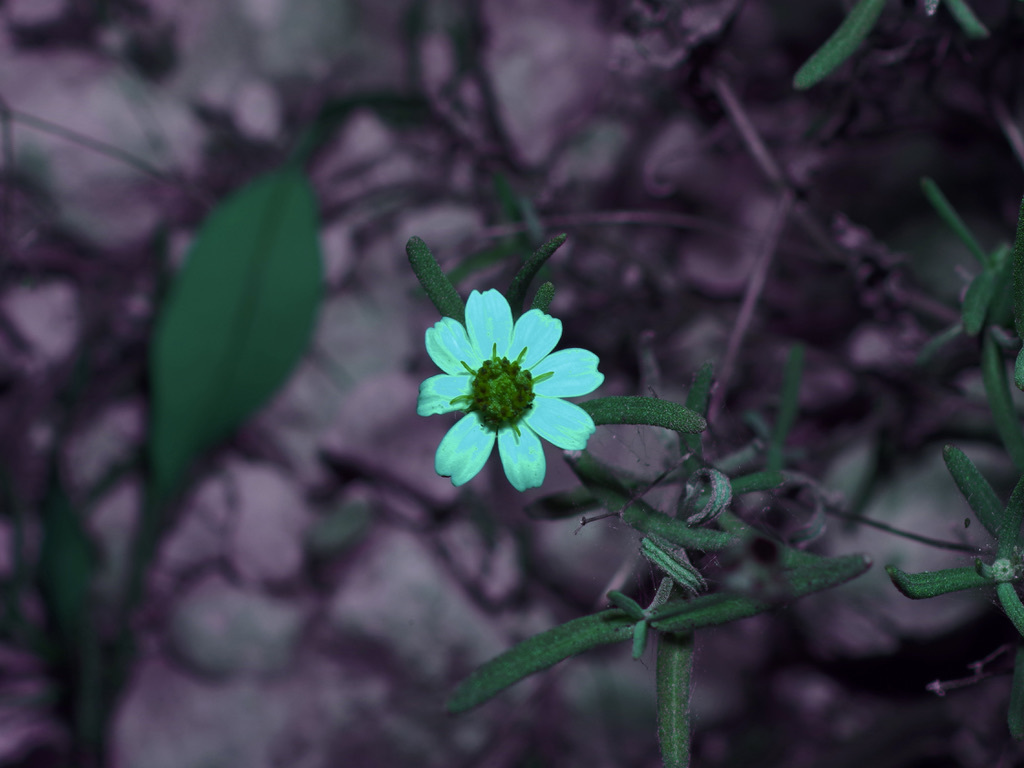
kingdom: Plantae
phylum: Tracheophyta
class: Magnoliopsida
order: Asterales
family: Asteraceae
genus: Melampodium
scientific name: Melampodium leucanthum
